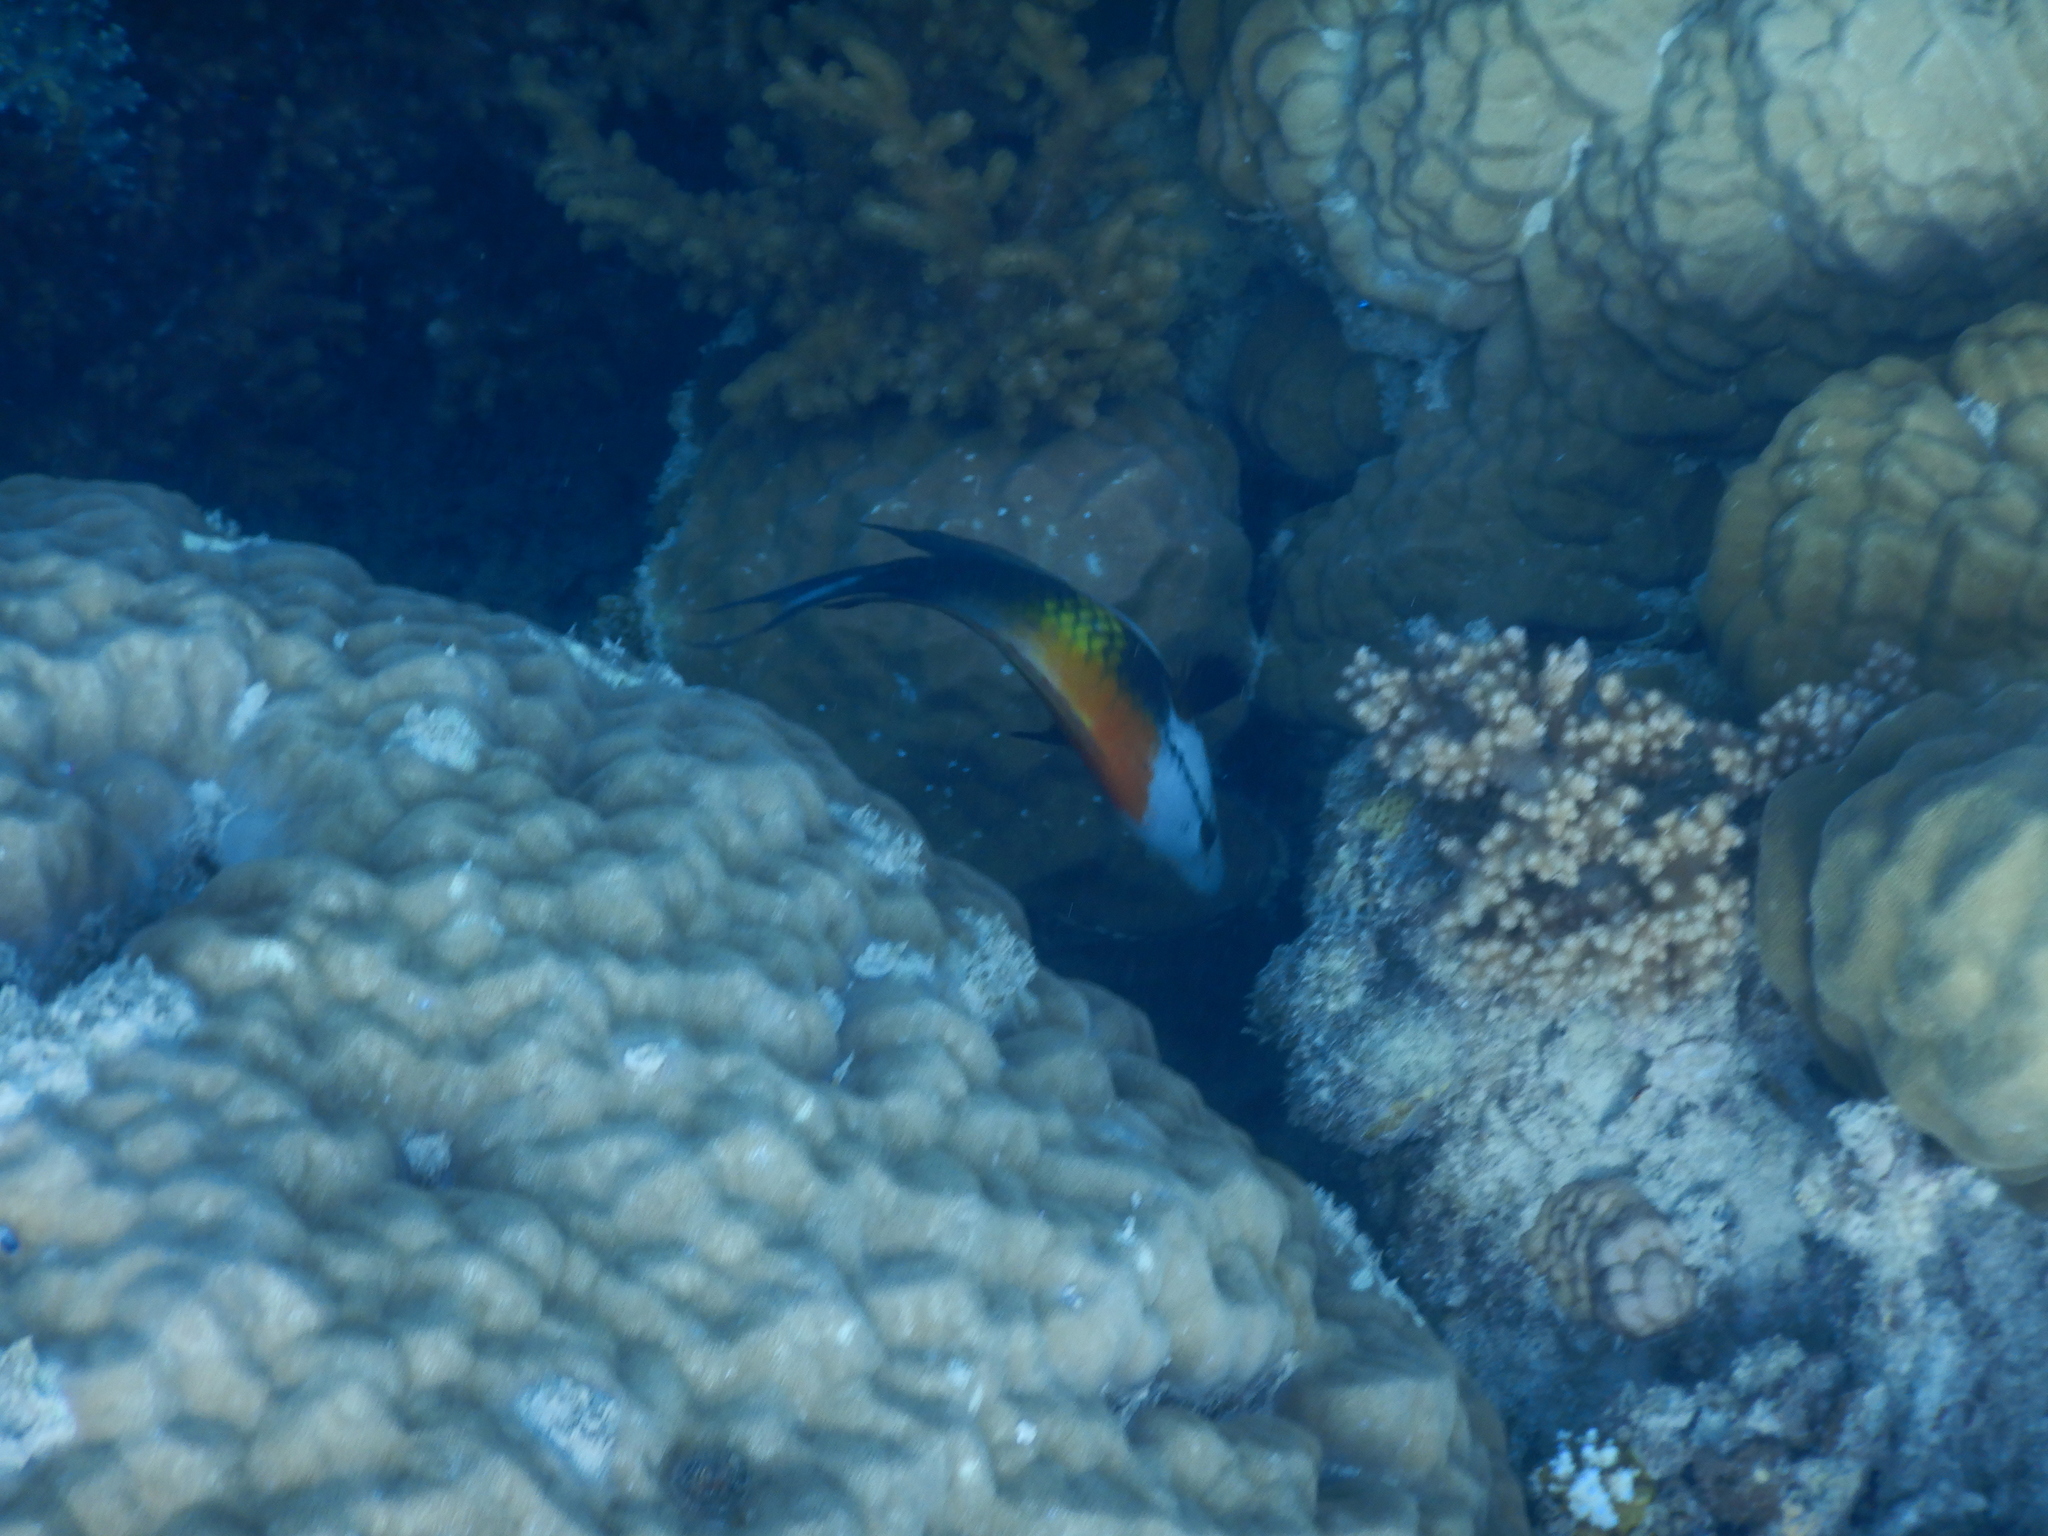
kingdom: Animalia
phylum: Chordata
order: Perciformes
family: Labridae
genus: Epibulus
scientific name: Epibulus insidiator
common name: Slingjaw wrasse
